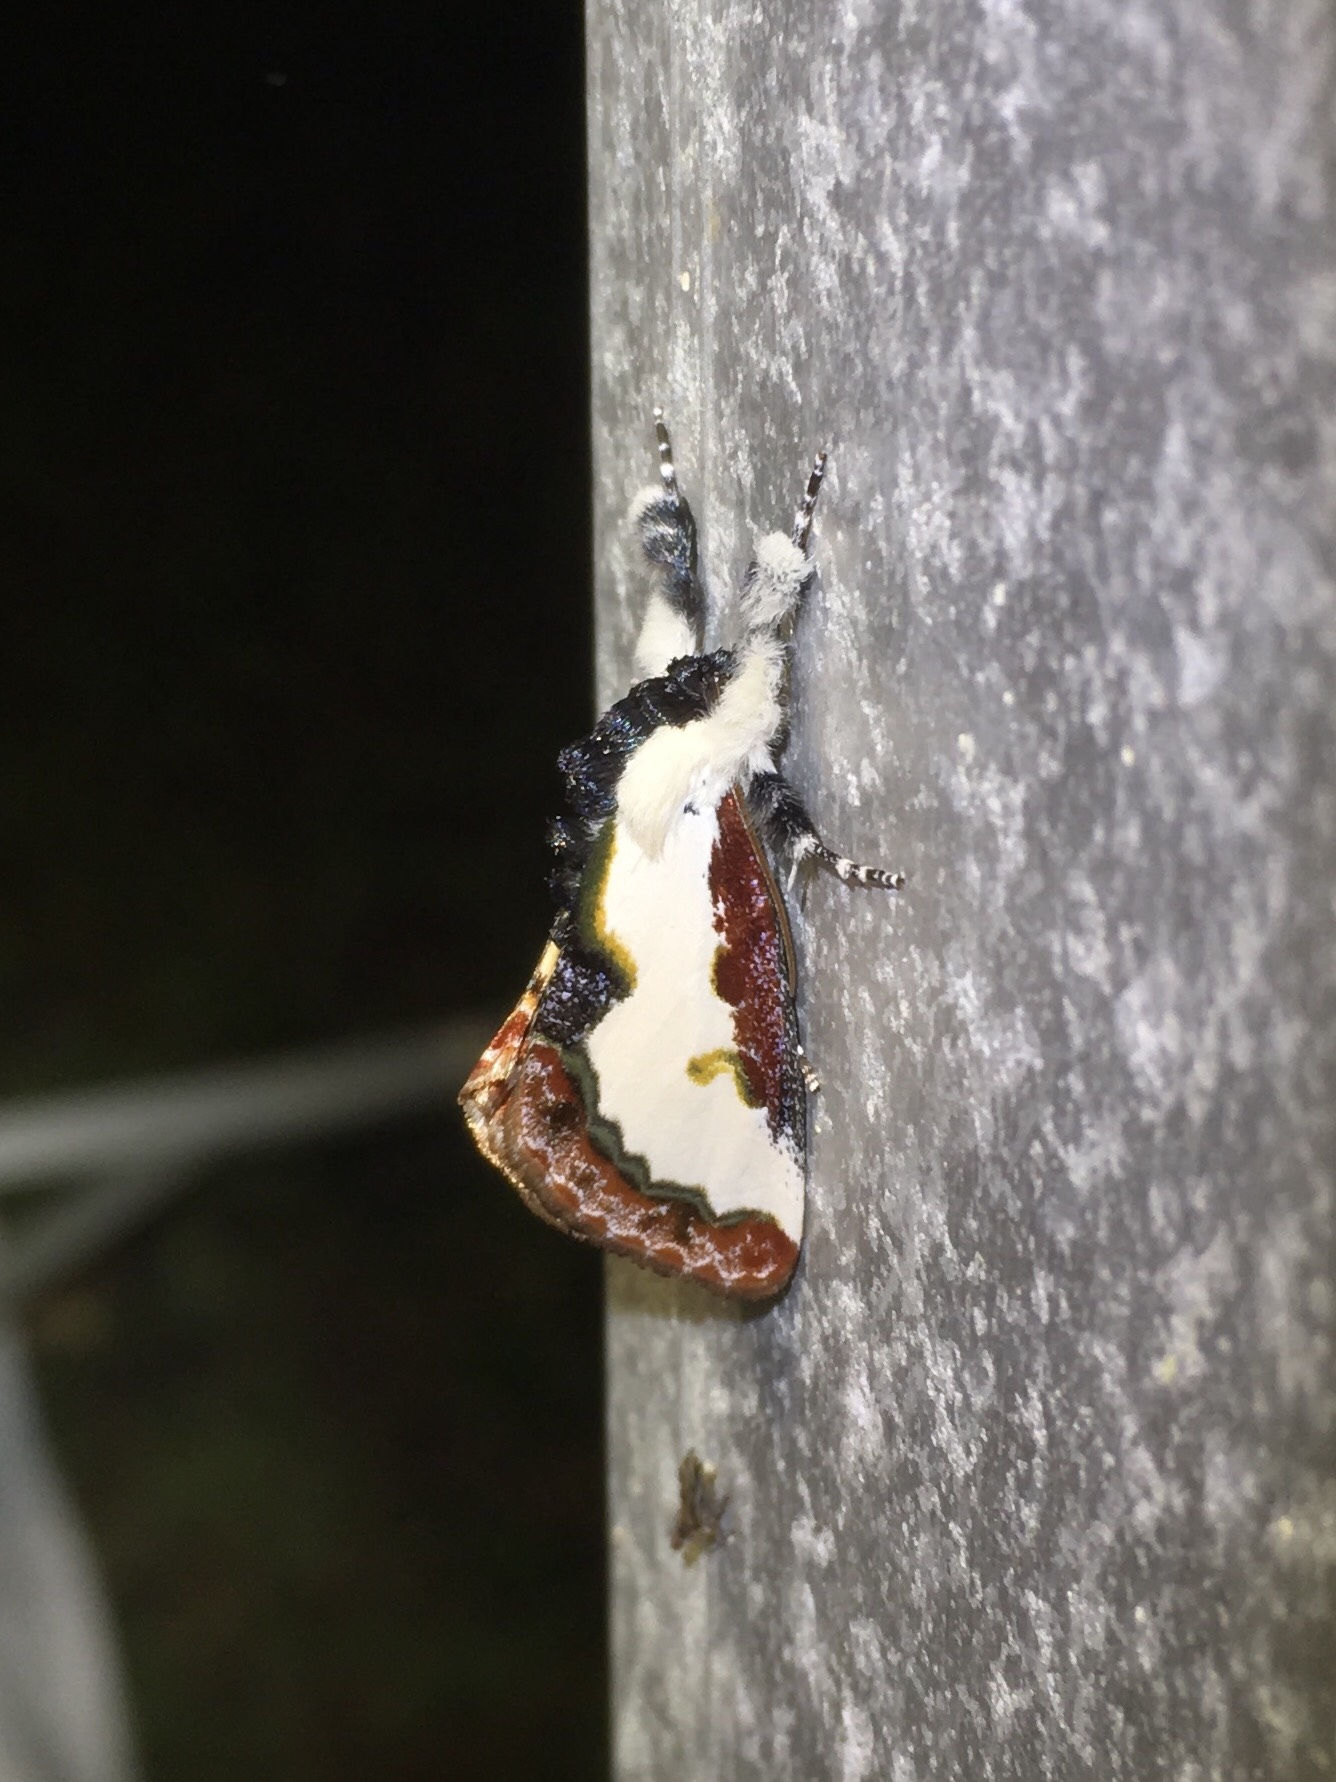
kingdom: Animalia
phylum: Arthropoda
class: Insecta
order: Lepidoptera
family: Noctuidae
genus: Eudryas
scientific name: Eudryas unio
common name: Pearly wood-nymph
